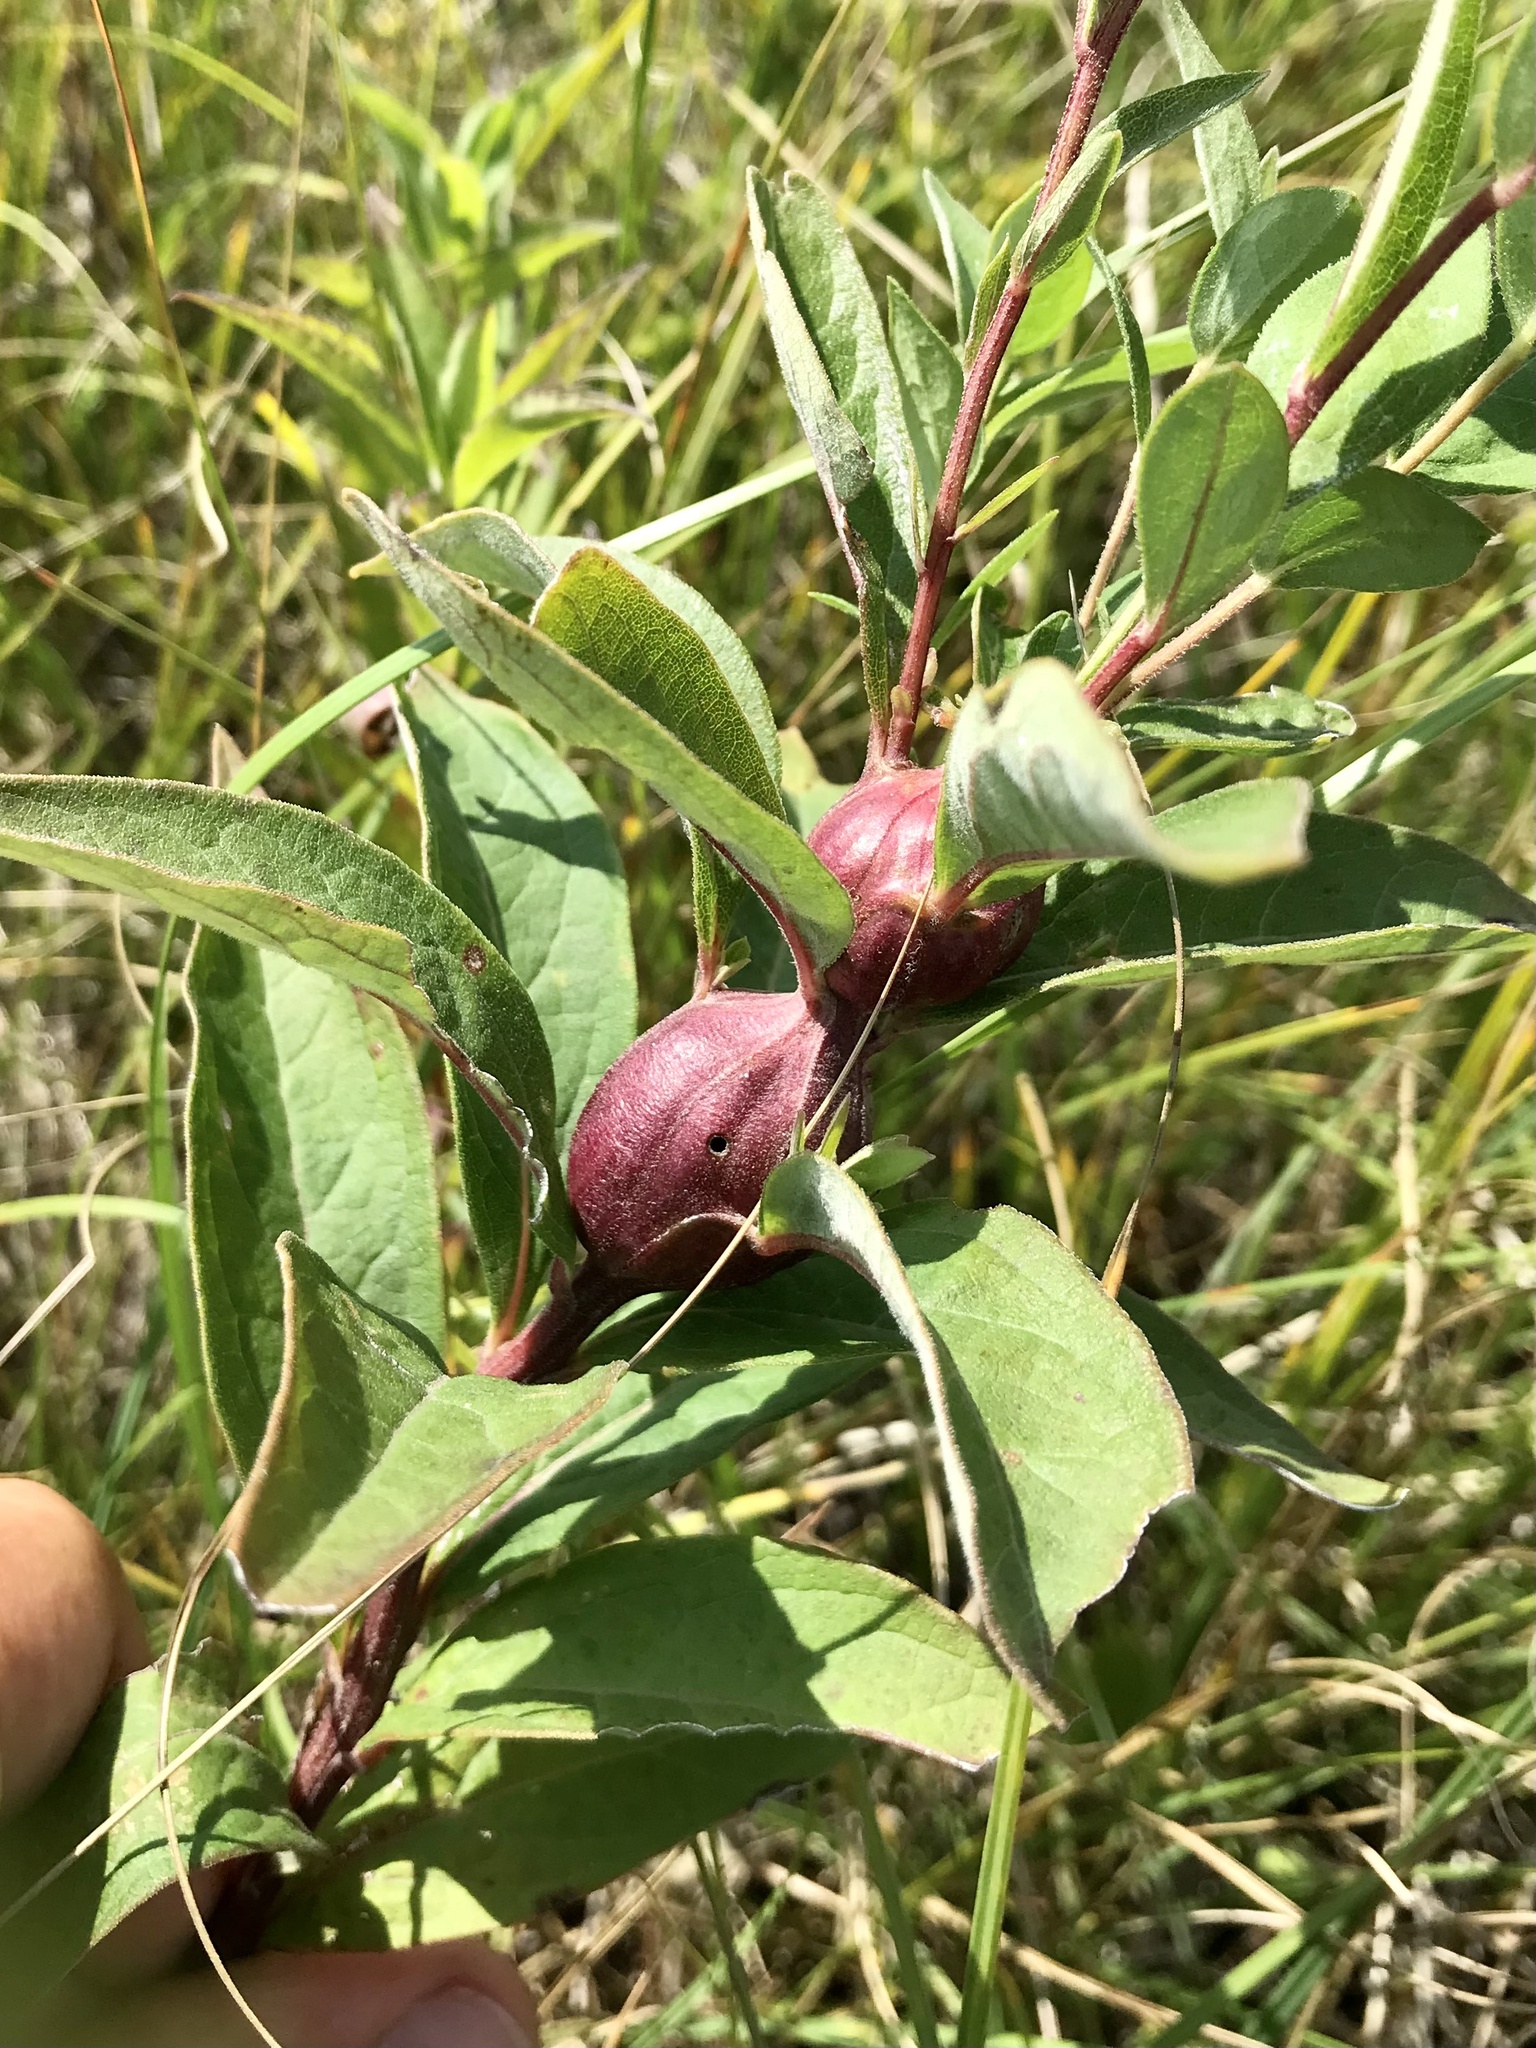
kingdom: Animalia
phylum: Arthropoda
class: Insecta
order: Lepidoptera
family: Gelechiidae
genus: Gnorimoschema
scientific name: Gnorimoschema
